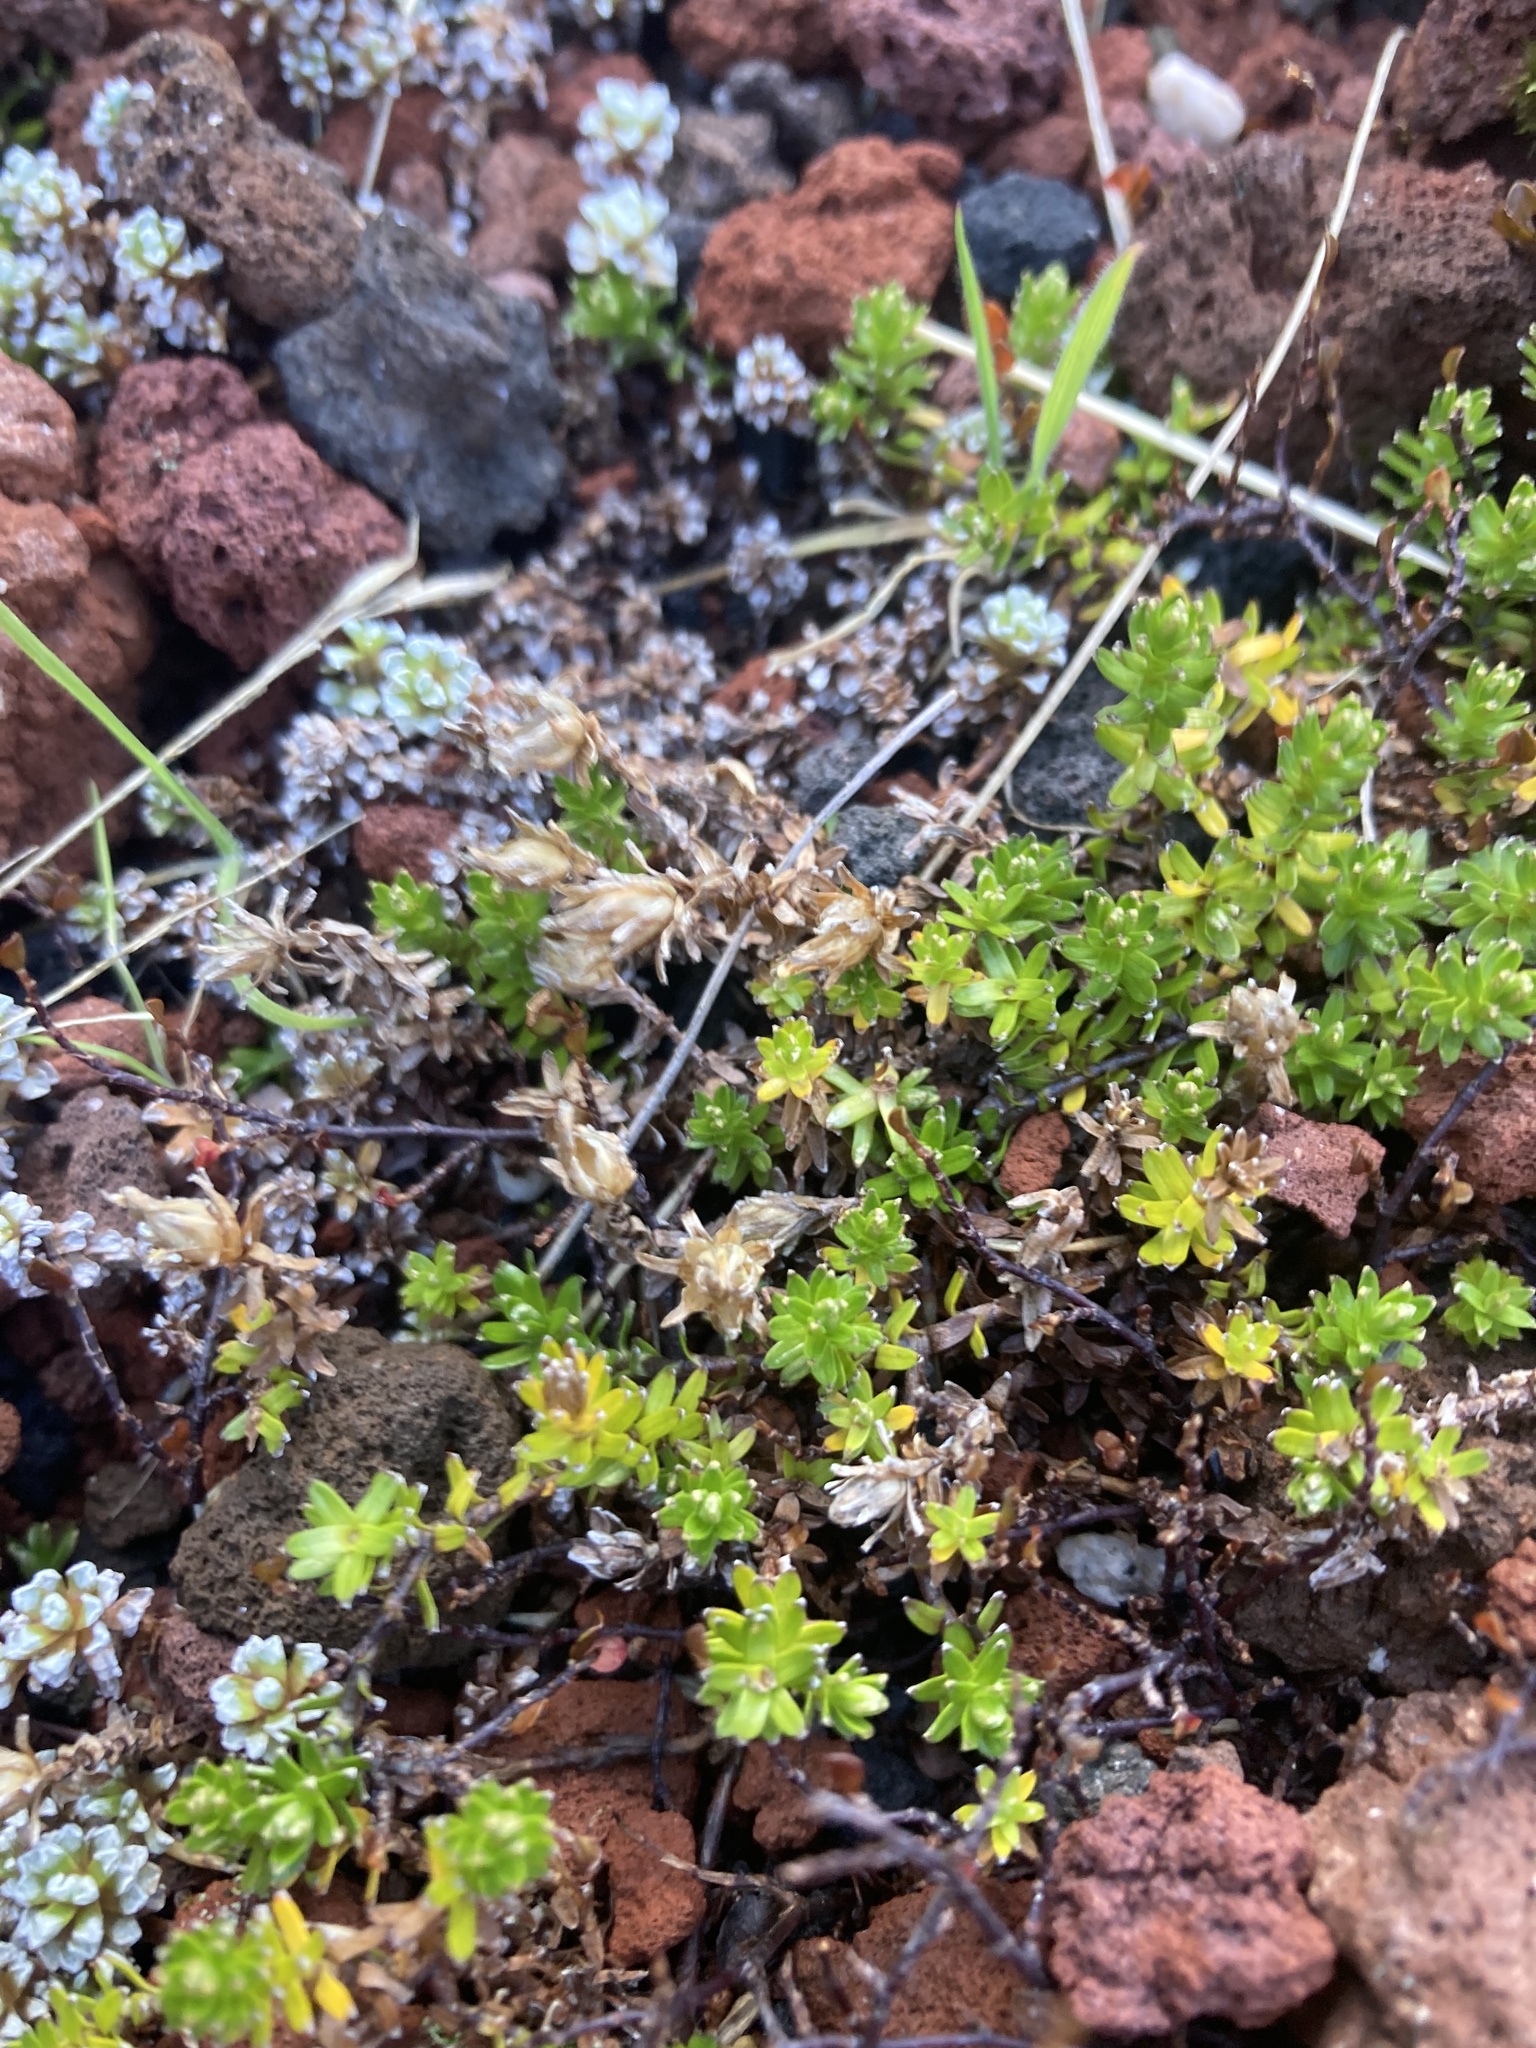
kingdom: Plantae
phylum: Tracheophyta
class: Magnoliopsida
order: Asterales
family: Asteraceae
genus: Raoulia
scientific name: Raoulia glabra
